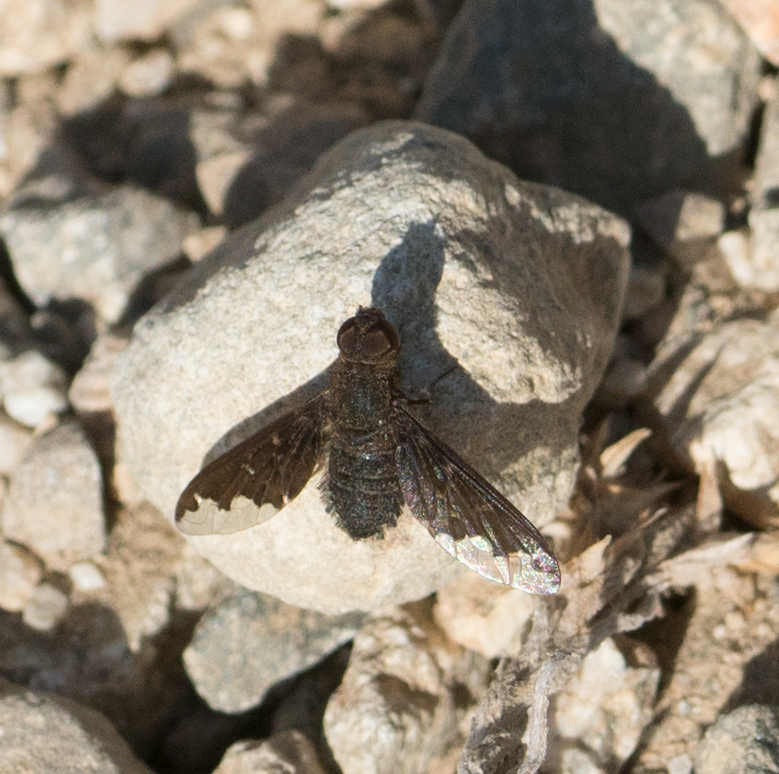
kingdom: Animalia
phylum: Arthropoda
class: Insecta
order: Diptera
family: Bombyliidae
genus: Hemipenthes
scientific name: Hemipenthes sinuosus
